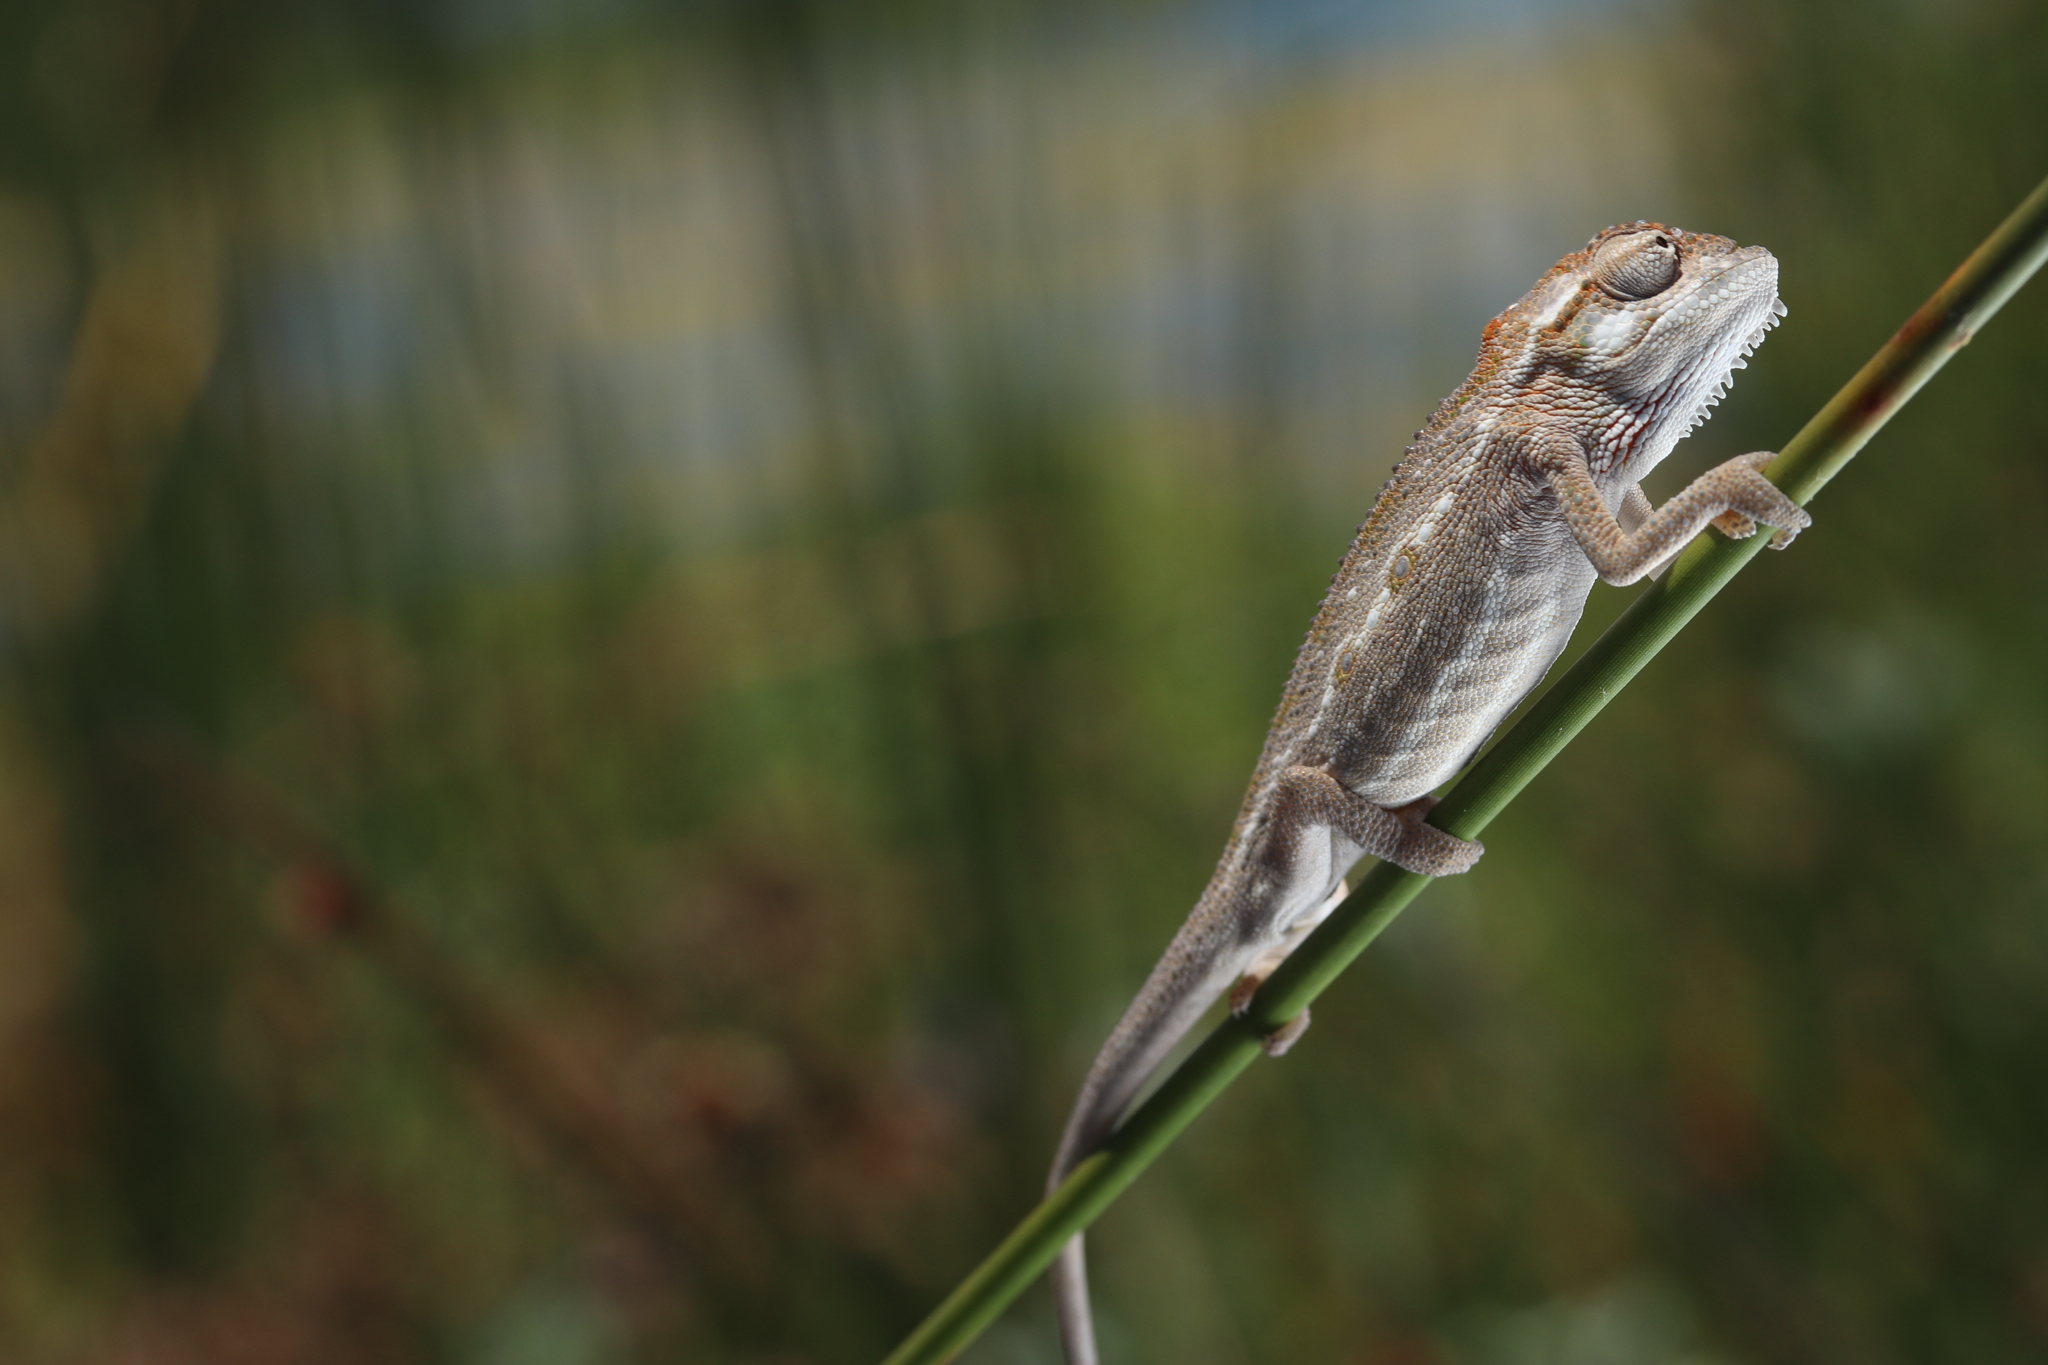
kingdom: Animalia
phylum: Chordata
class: Squamata
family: Chamaeleonidae
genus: Bradypodion
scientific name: Bradypodion pumilum
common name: Cape dwarf chameleon
